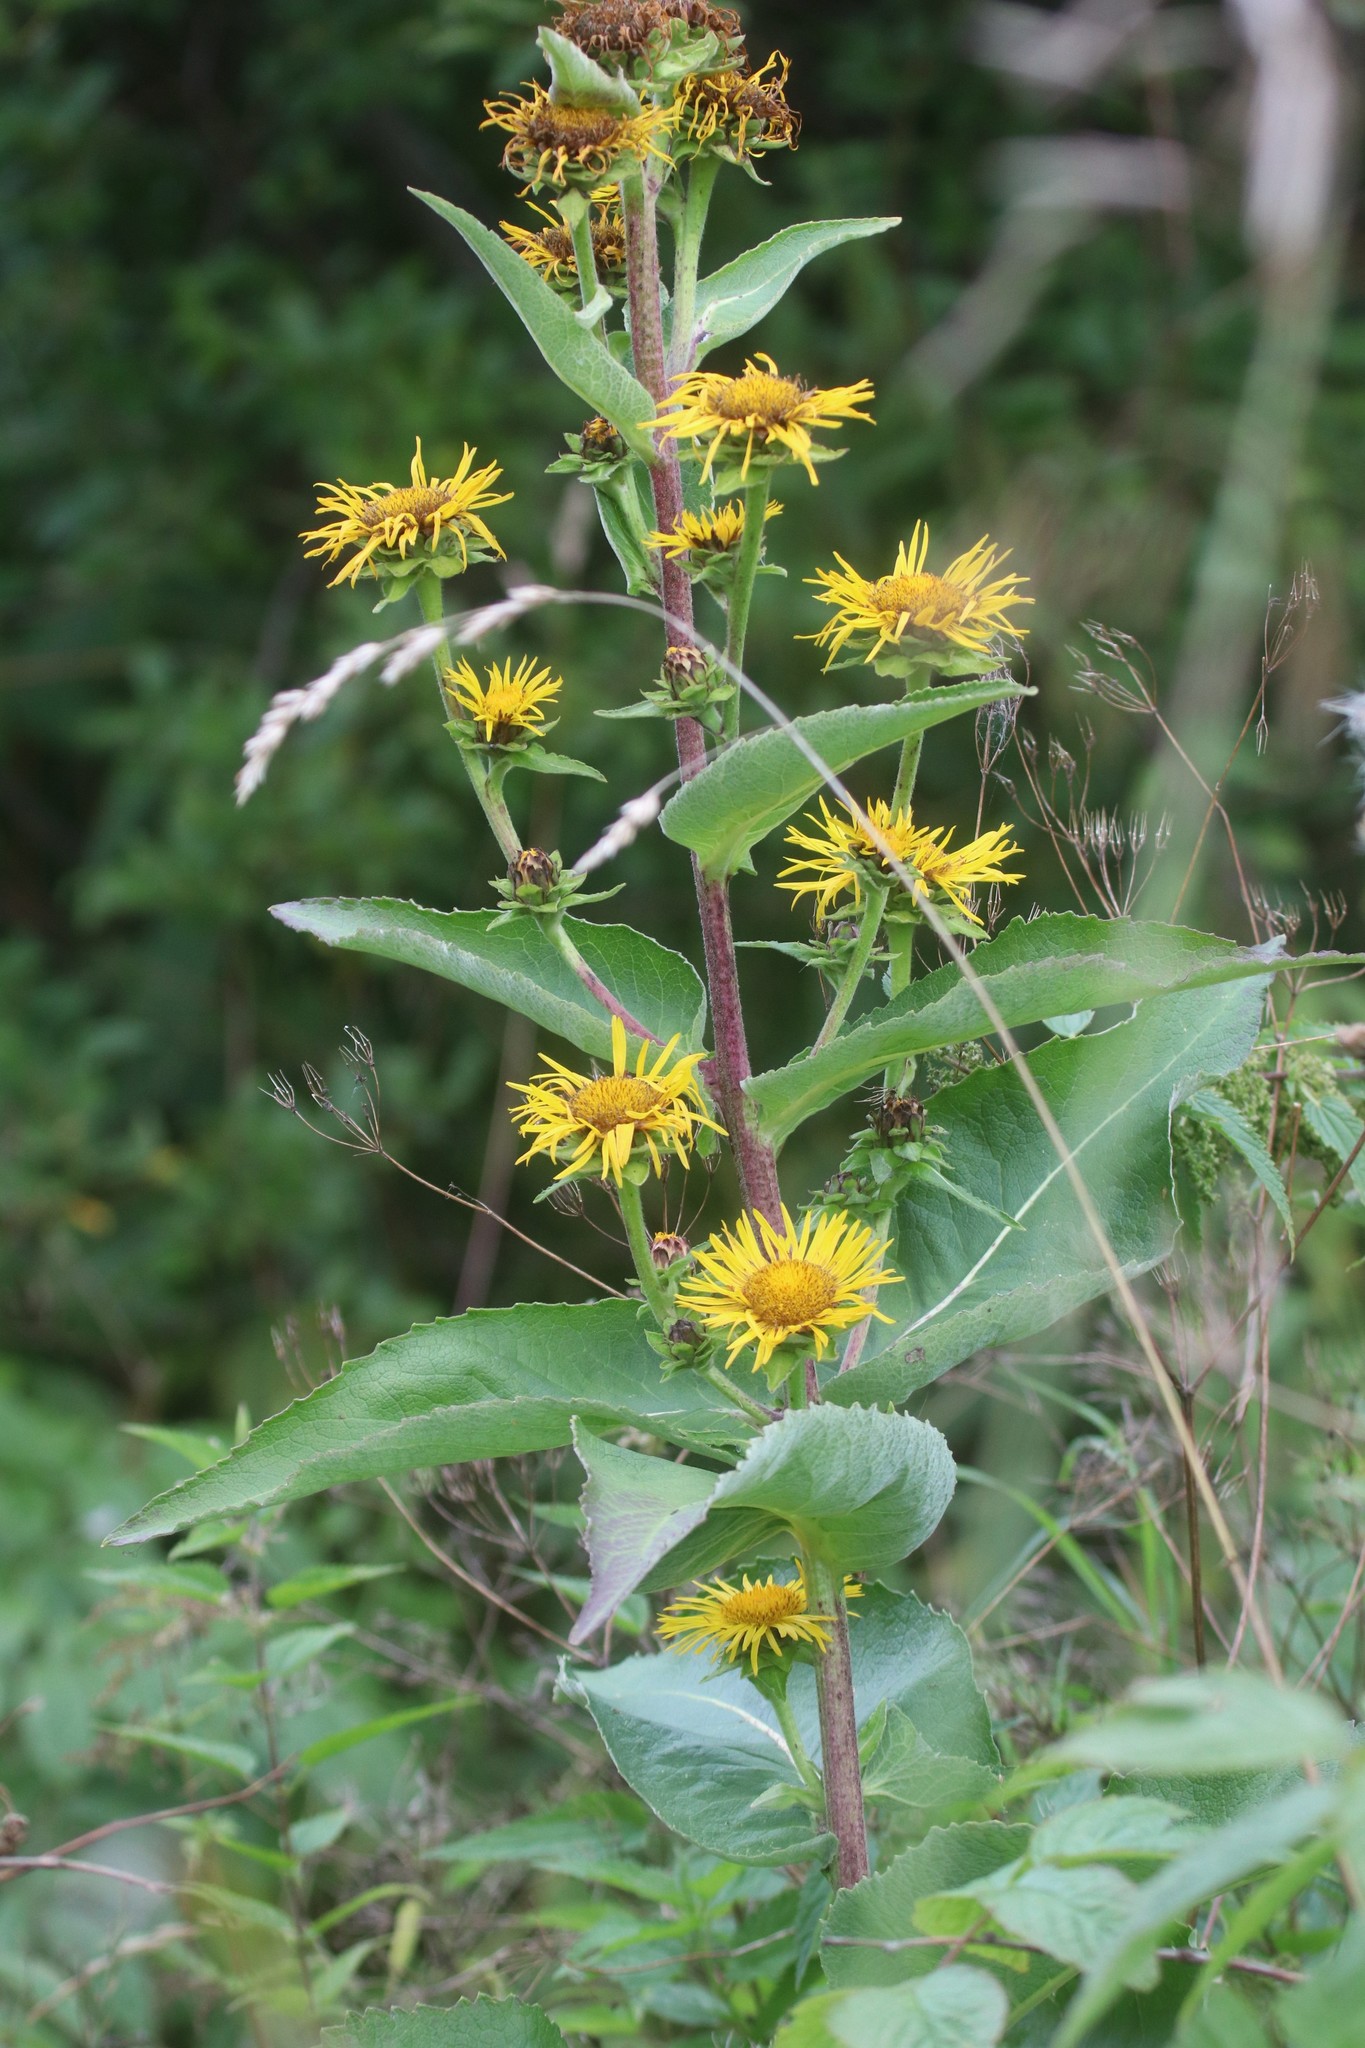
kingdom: Plantae
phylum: Tracheophyta
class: Magnoliopsida
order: Asterales
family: Asteraceae
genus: Inula
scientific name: Inula helenium
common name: Elecampane
